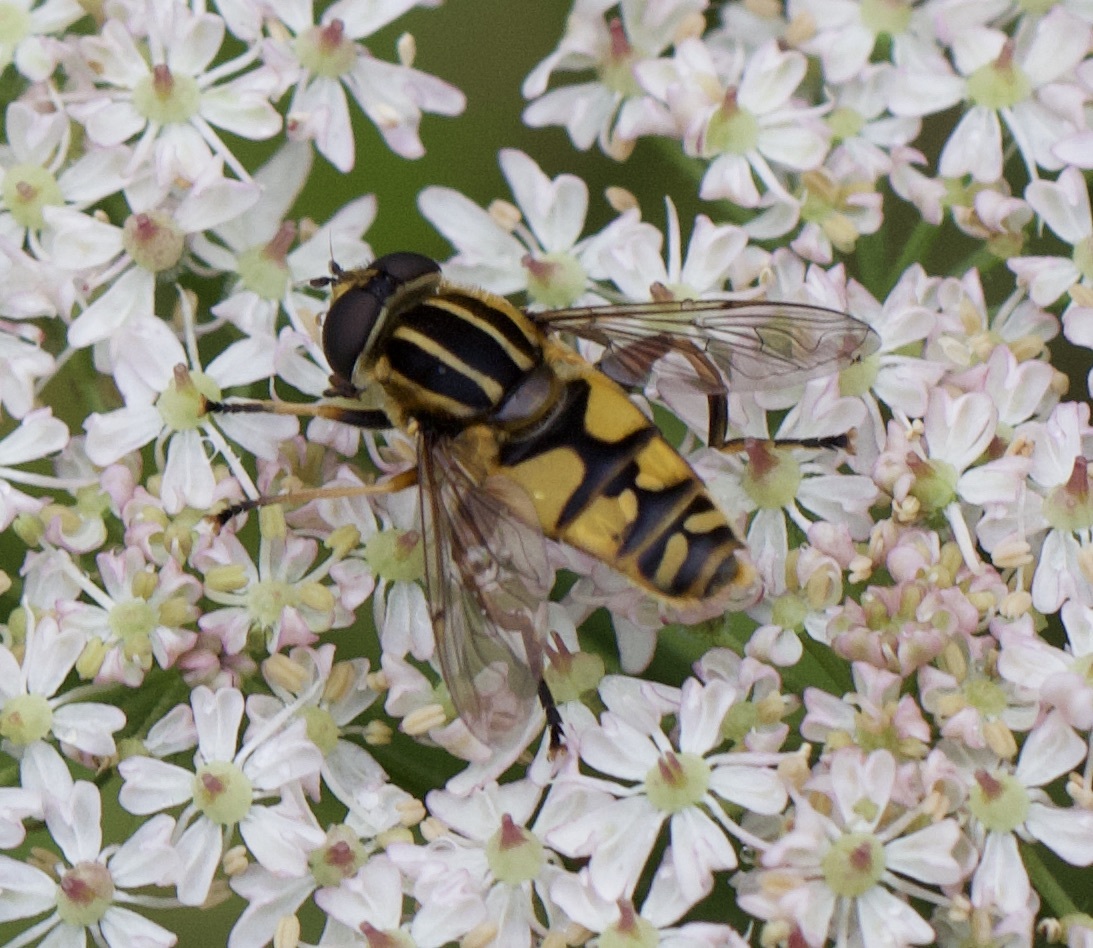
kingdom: Animalia
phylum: Arthropoda
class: Insecta
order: Diptera
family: Syrphidae
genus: Helophilus
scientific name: Helophilus pendulus
